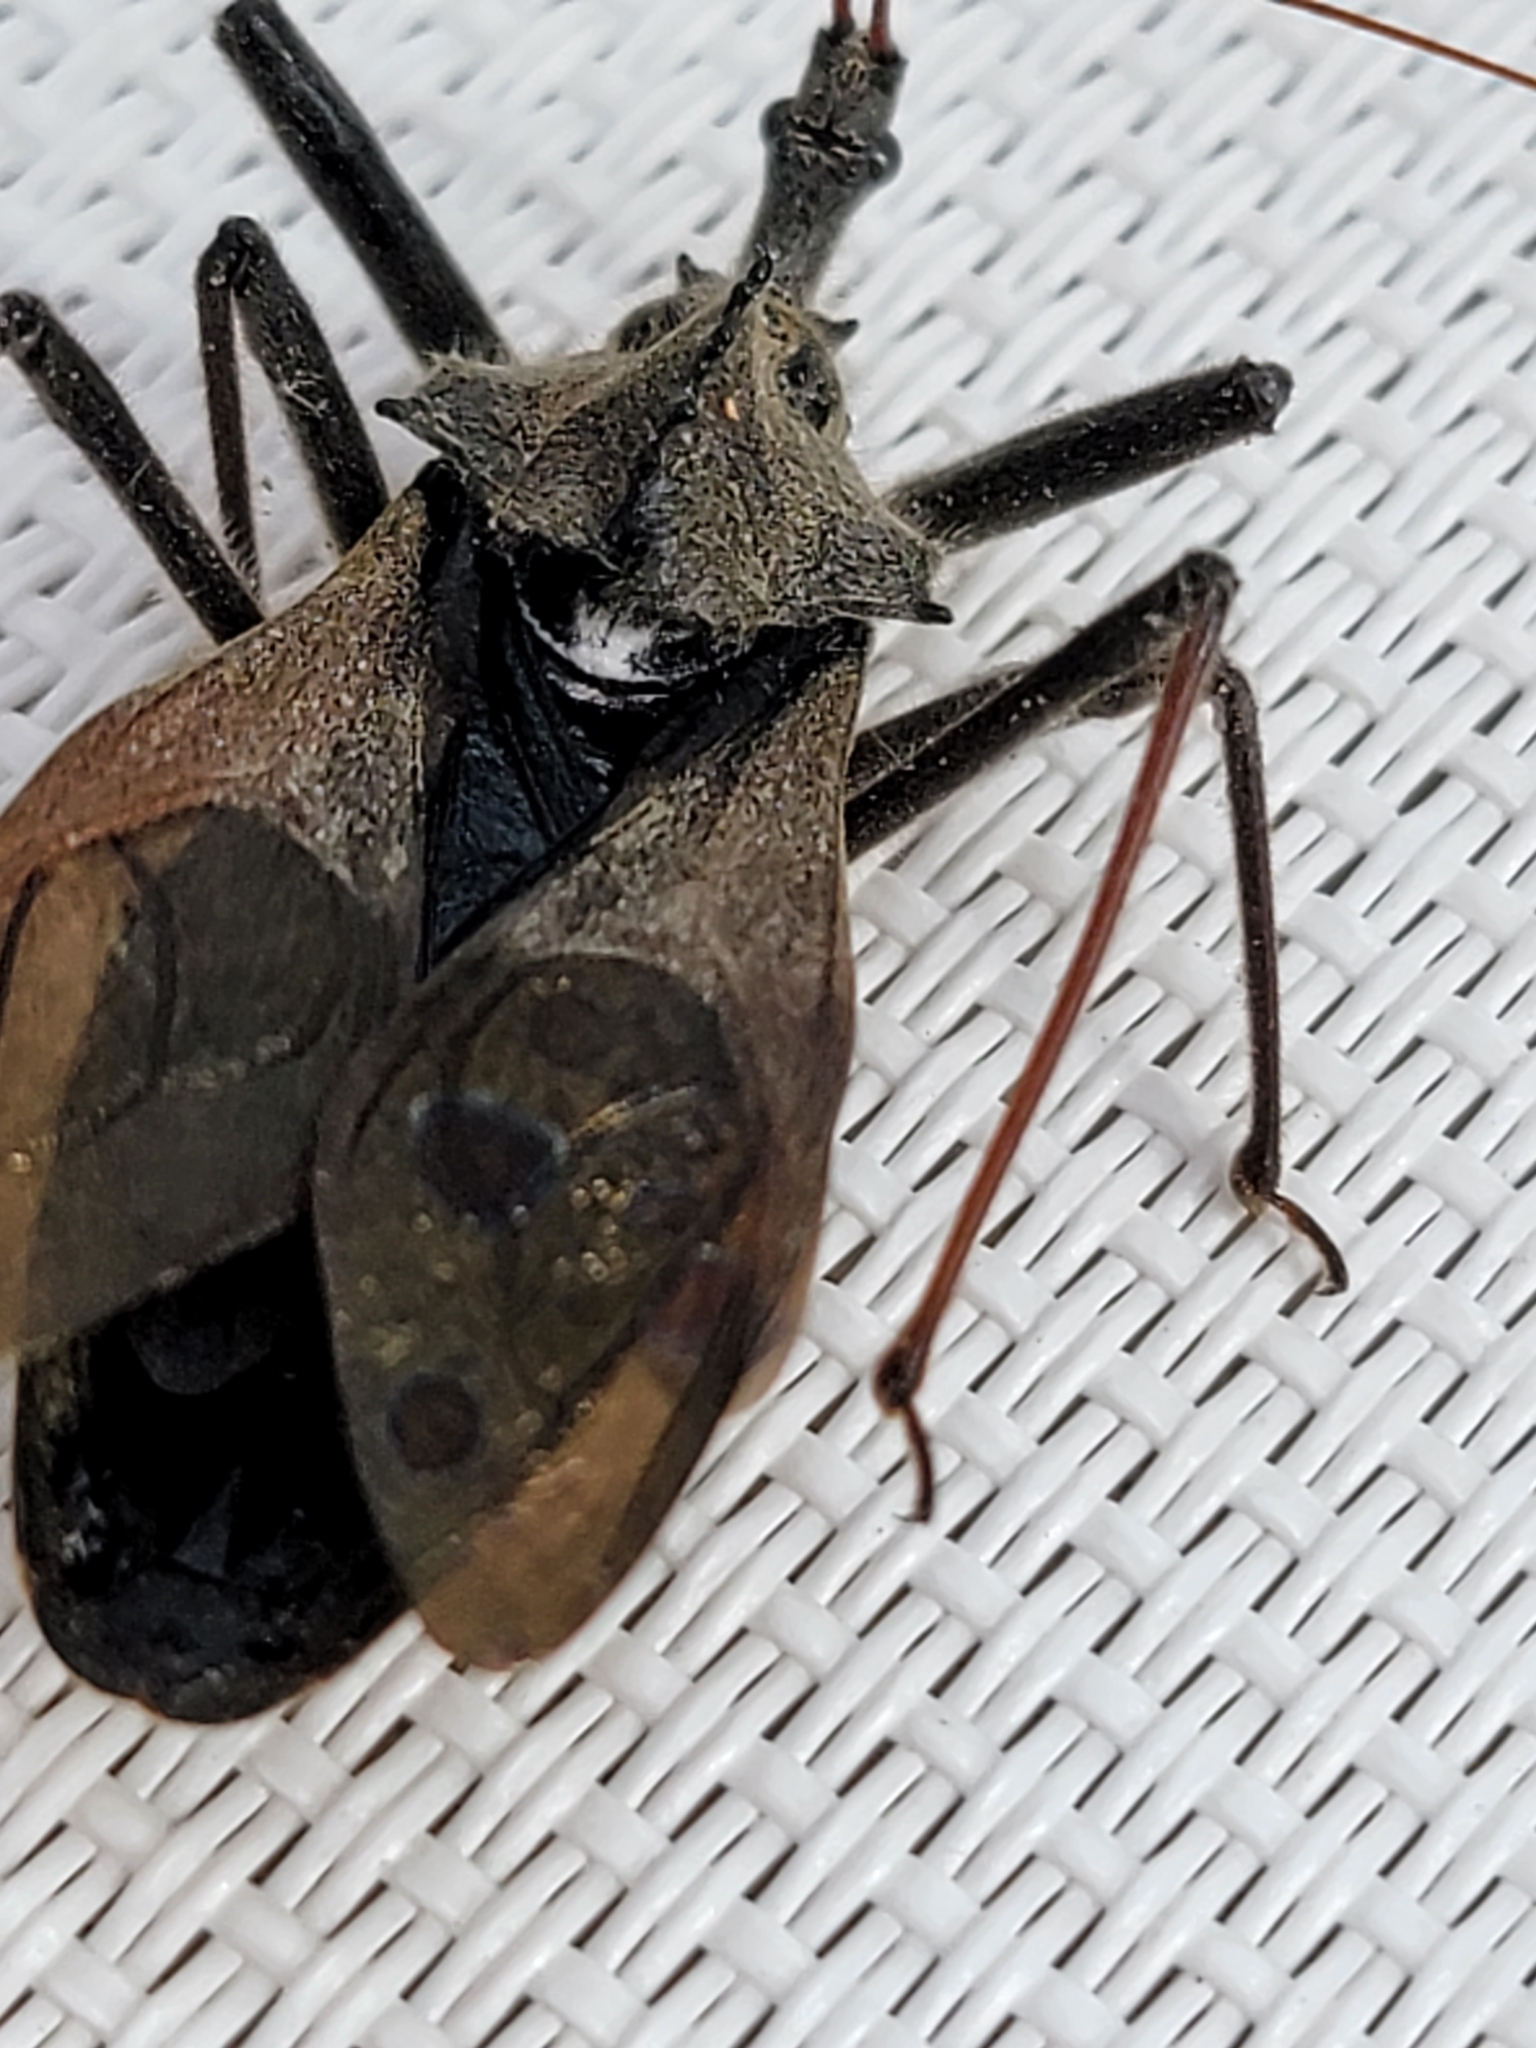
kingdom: Animalia
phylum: Arthropoda
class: Insecta
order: Hemiptera
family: Reduviidae
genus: Arilus
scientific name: Arilus cristatus
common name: North american wheel bug
